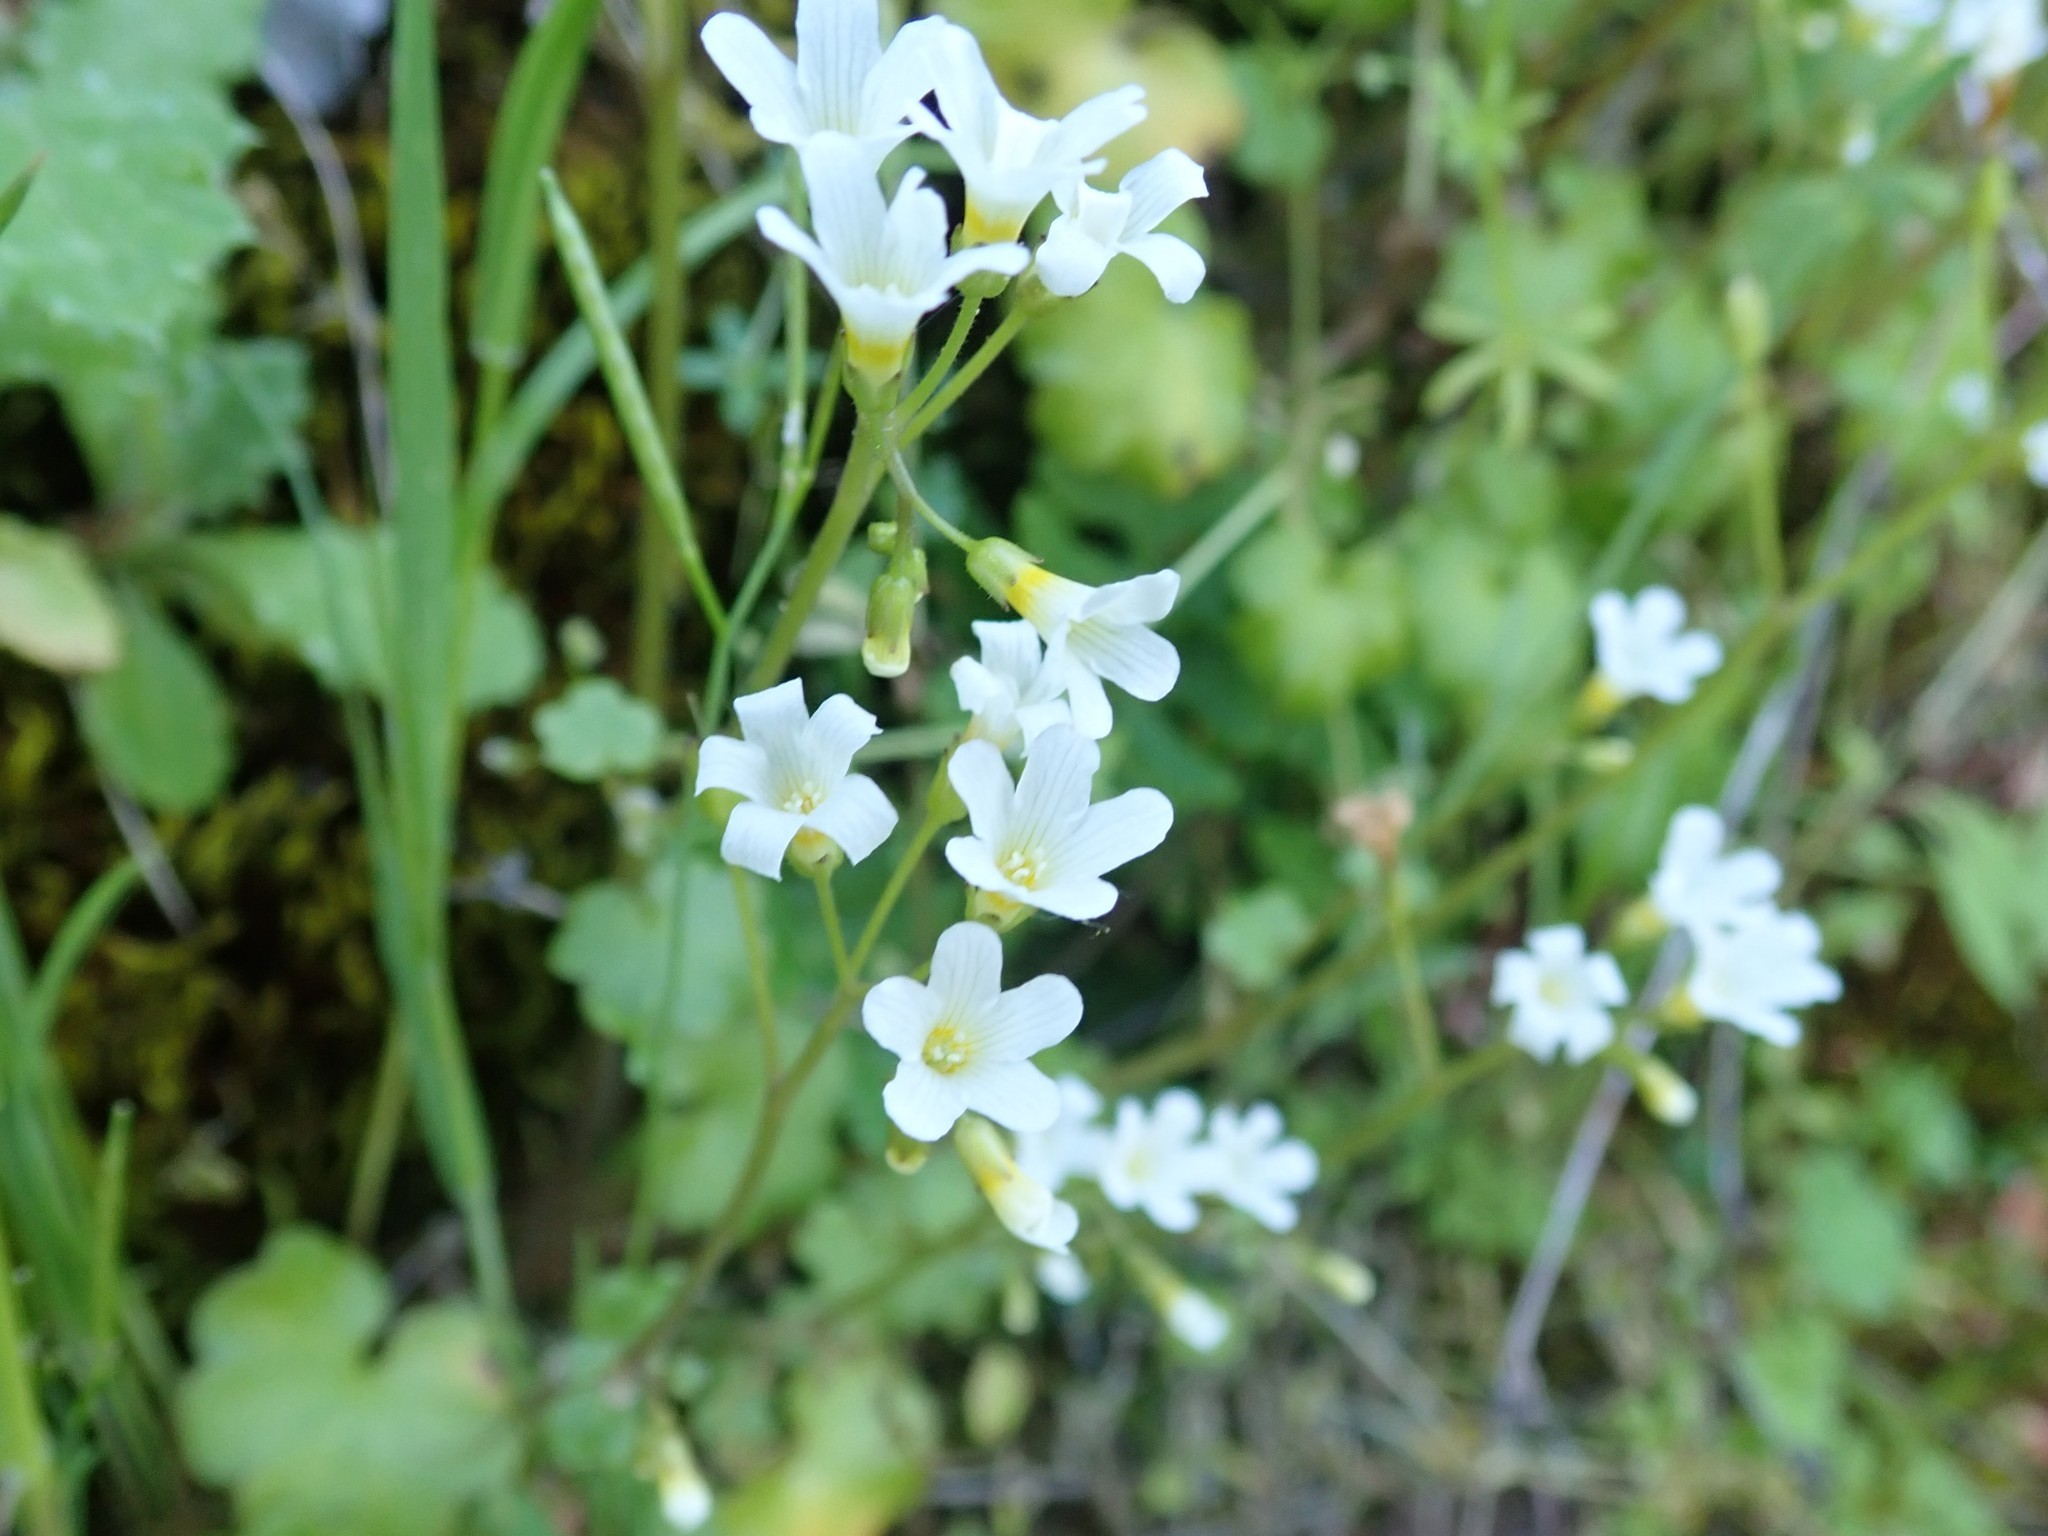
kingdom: Plantae
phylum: Tracheophyta
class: Magnoliopsida
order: Boraginales
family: Hydrophyllaceae
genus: Romanzoffia
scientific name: Romanzoffia californica
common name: California mistmaiden
